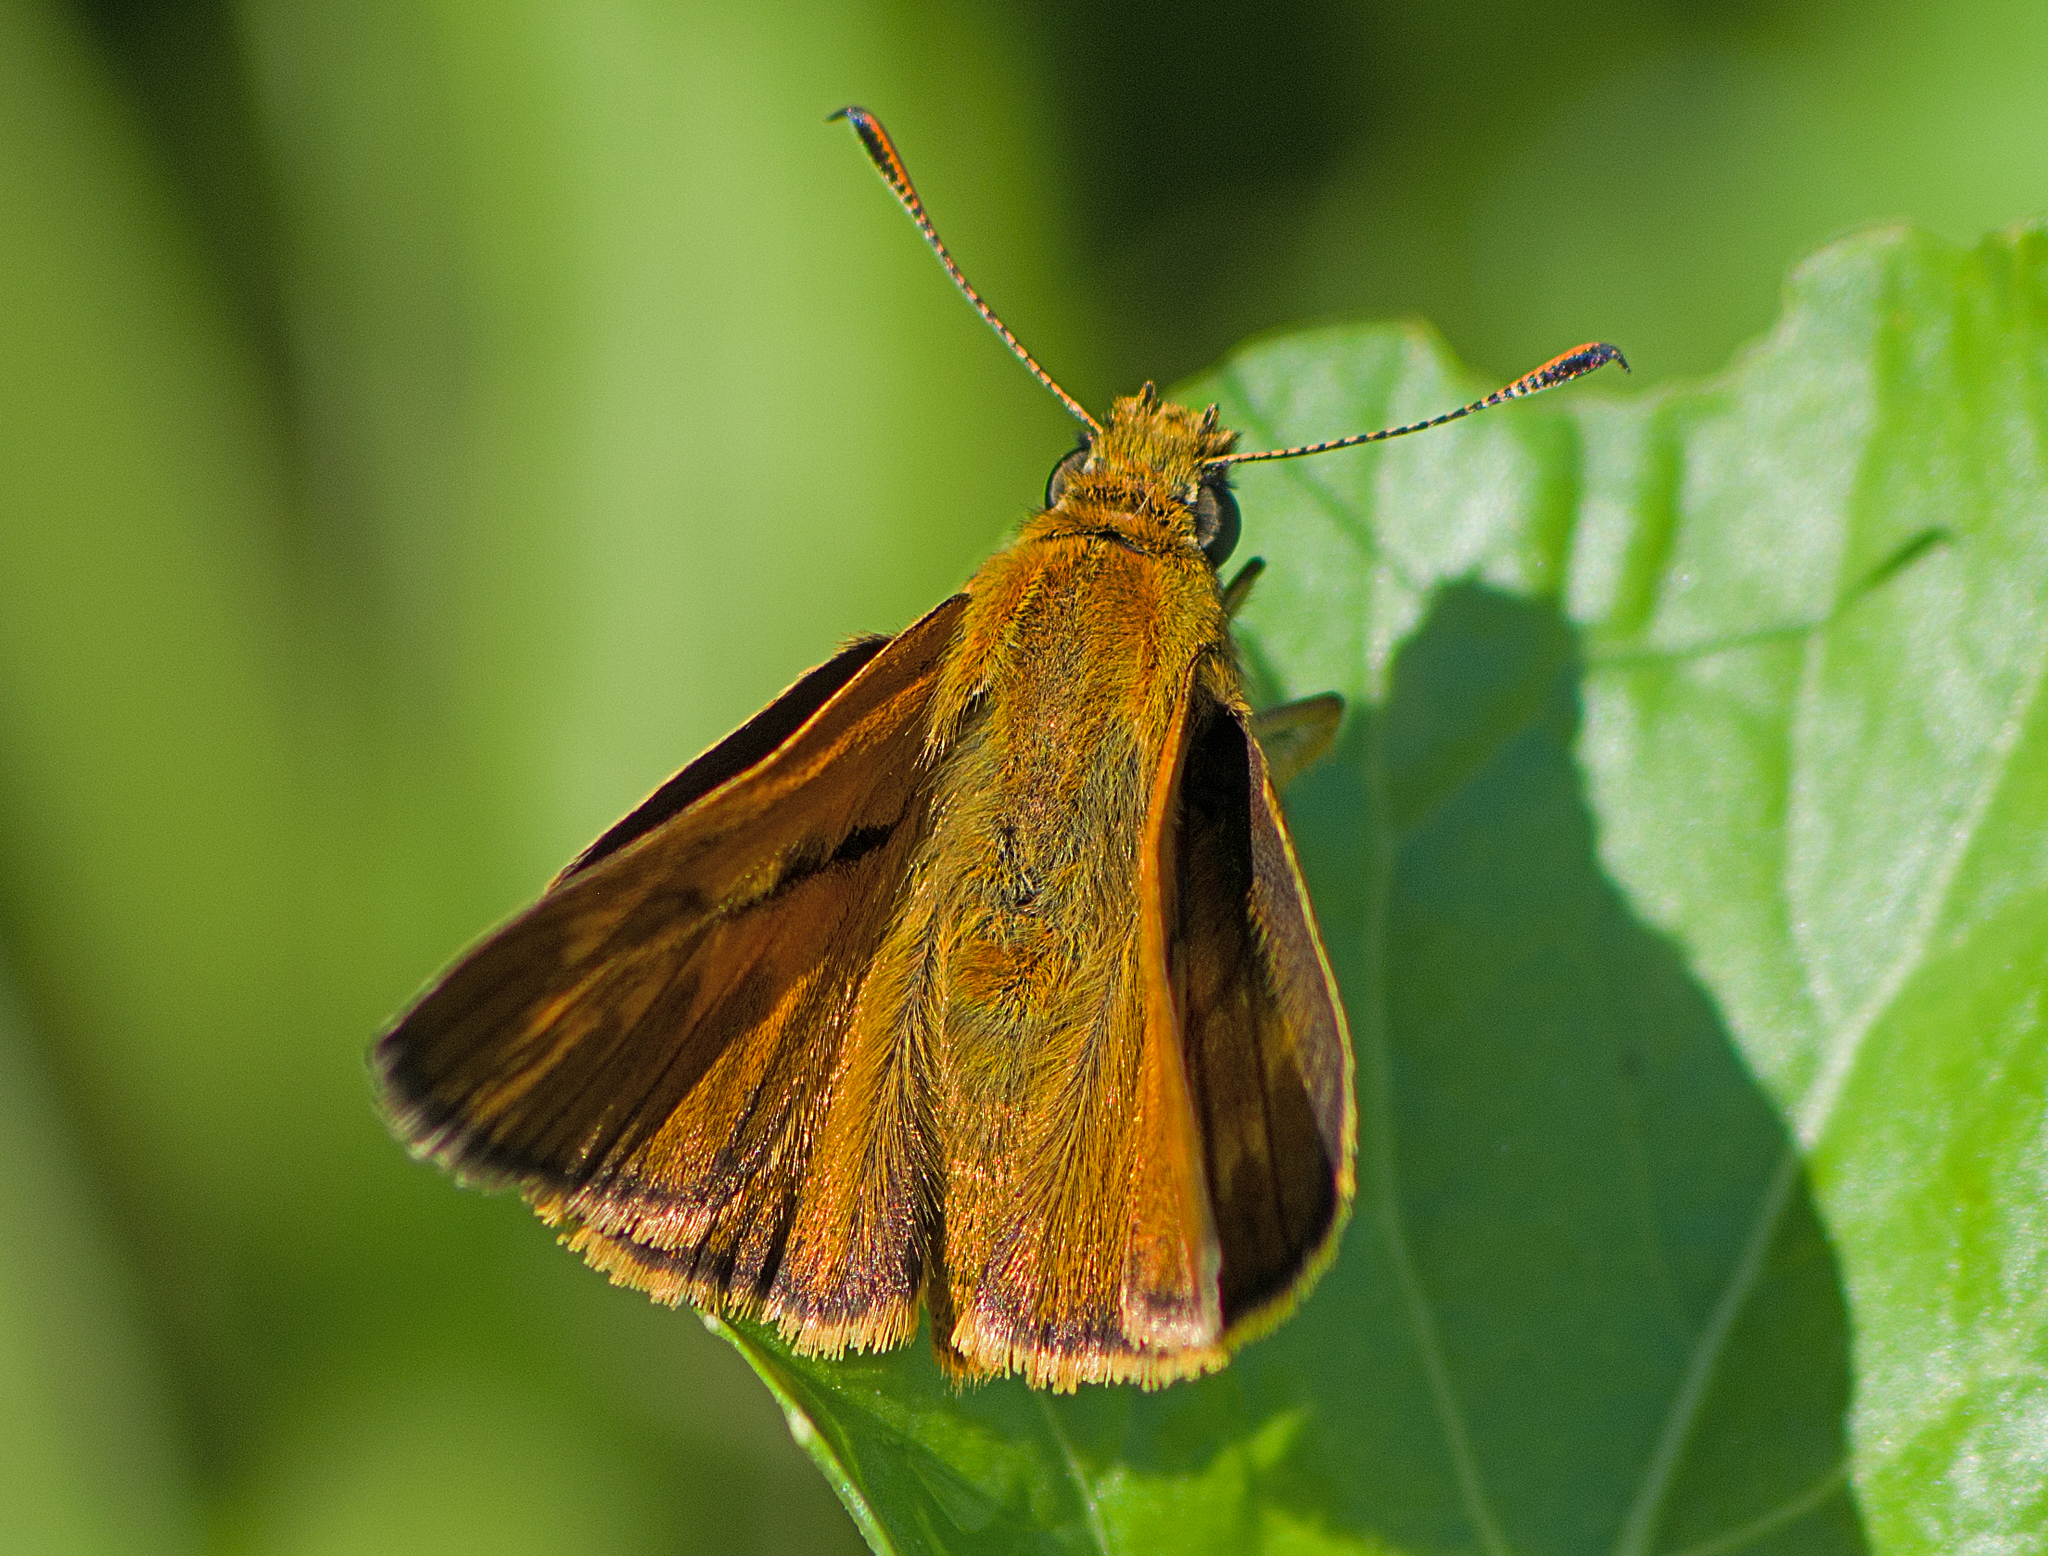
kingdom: Animalia
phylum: Arthropoda
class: Insecta
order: Lepidoptera
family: Hesperiidae
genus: Ochlodes
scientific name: Ochlodes venata
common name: Large skipper
